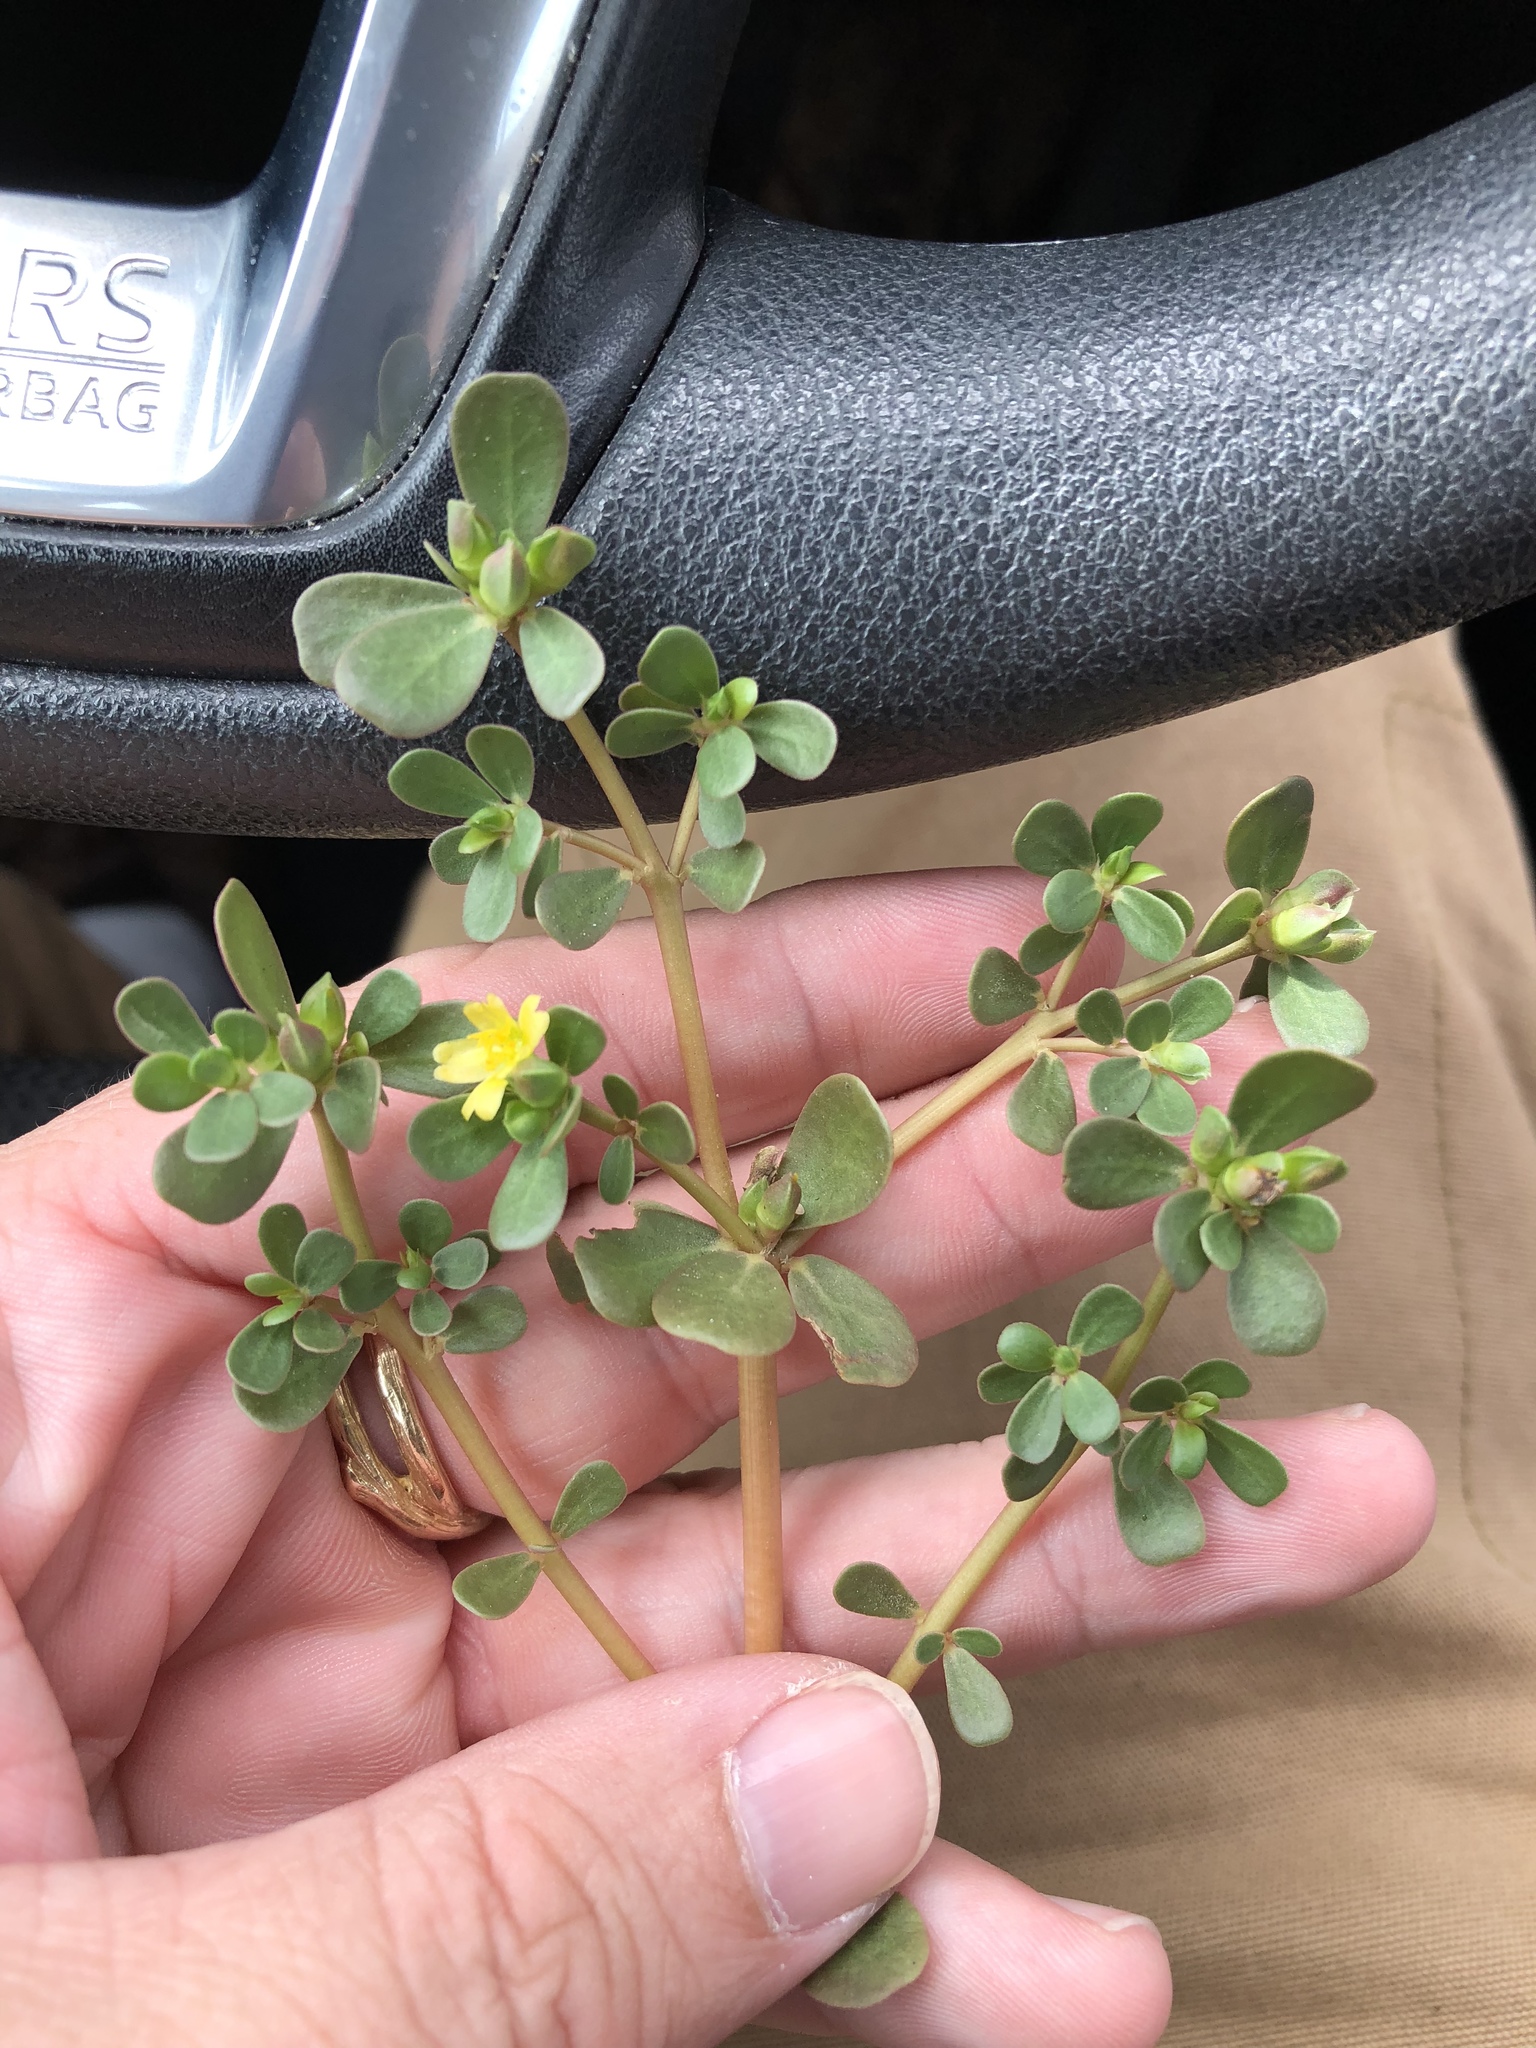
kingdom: Plantae
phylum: Tracheophyta
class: Magnoliopsida
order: Caryophyllales
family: Portulacaceae
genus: Portulaca
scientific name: Portulaca oleracea
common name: Common purslane
